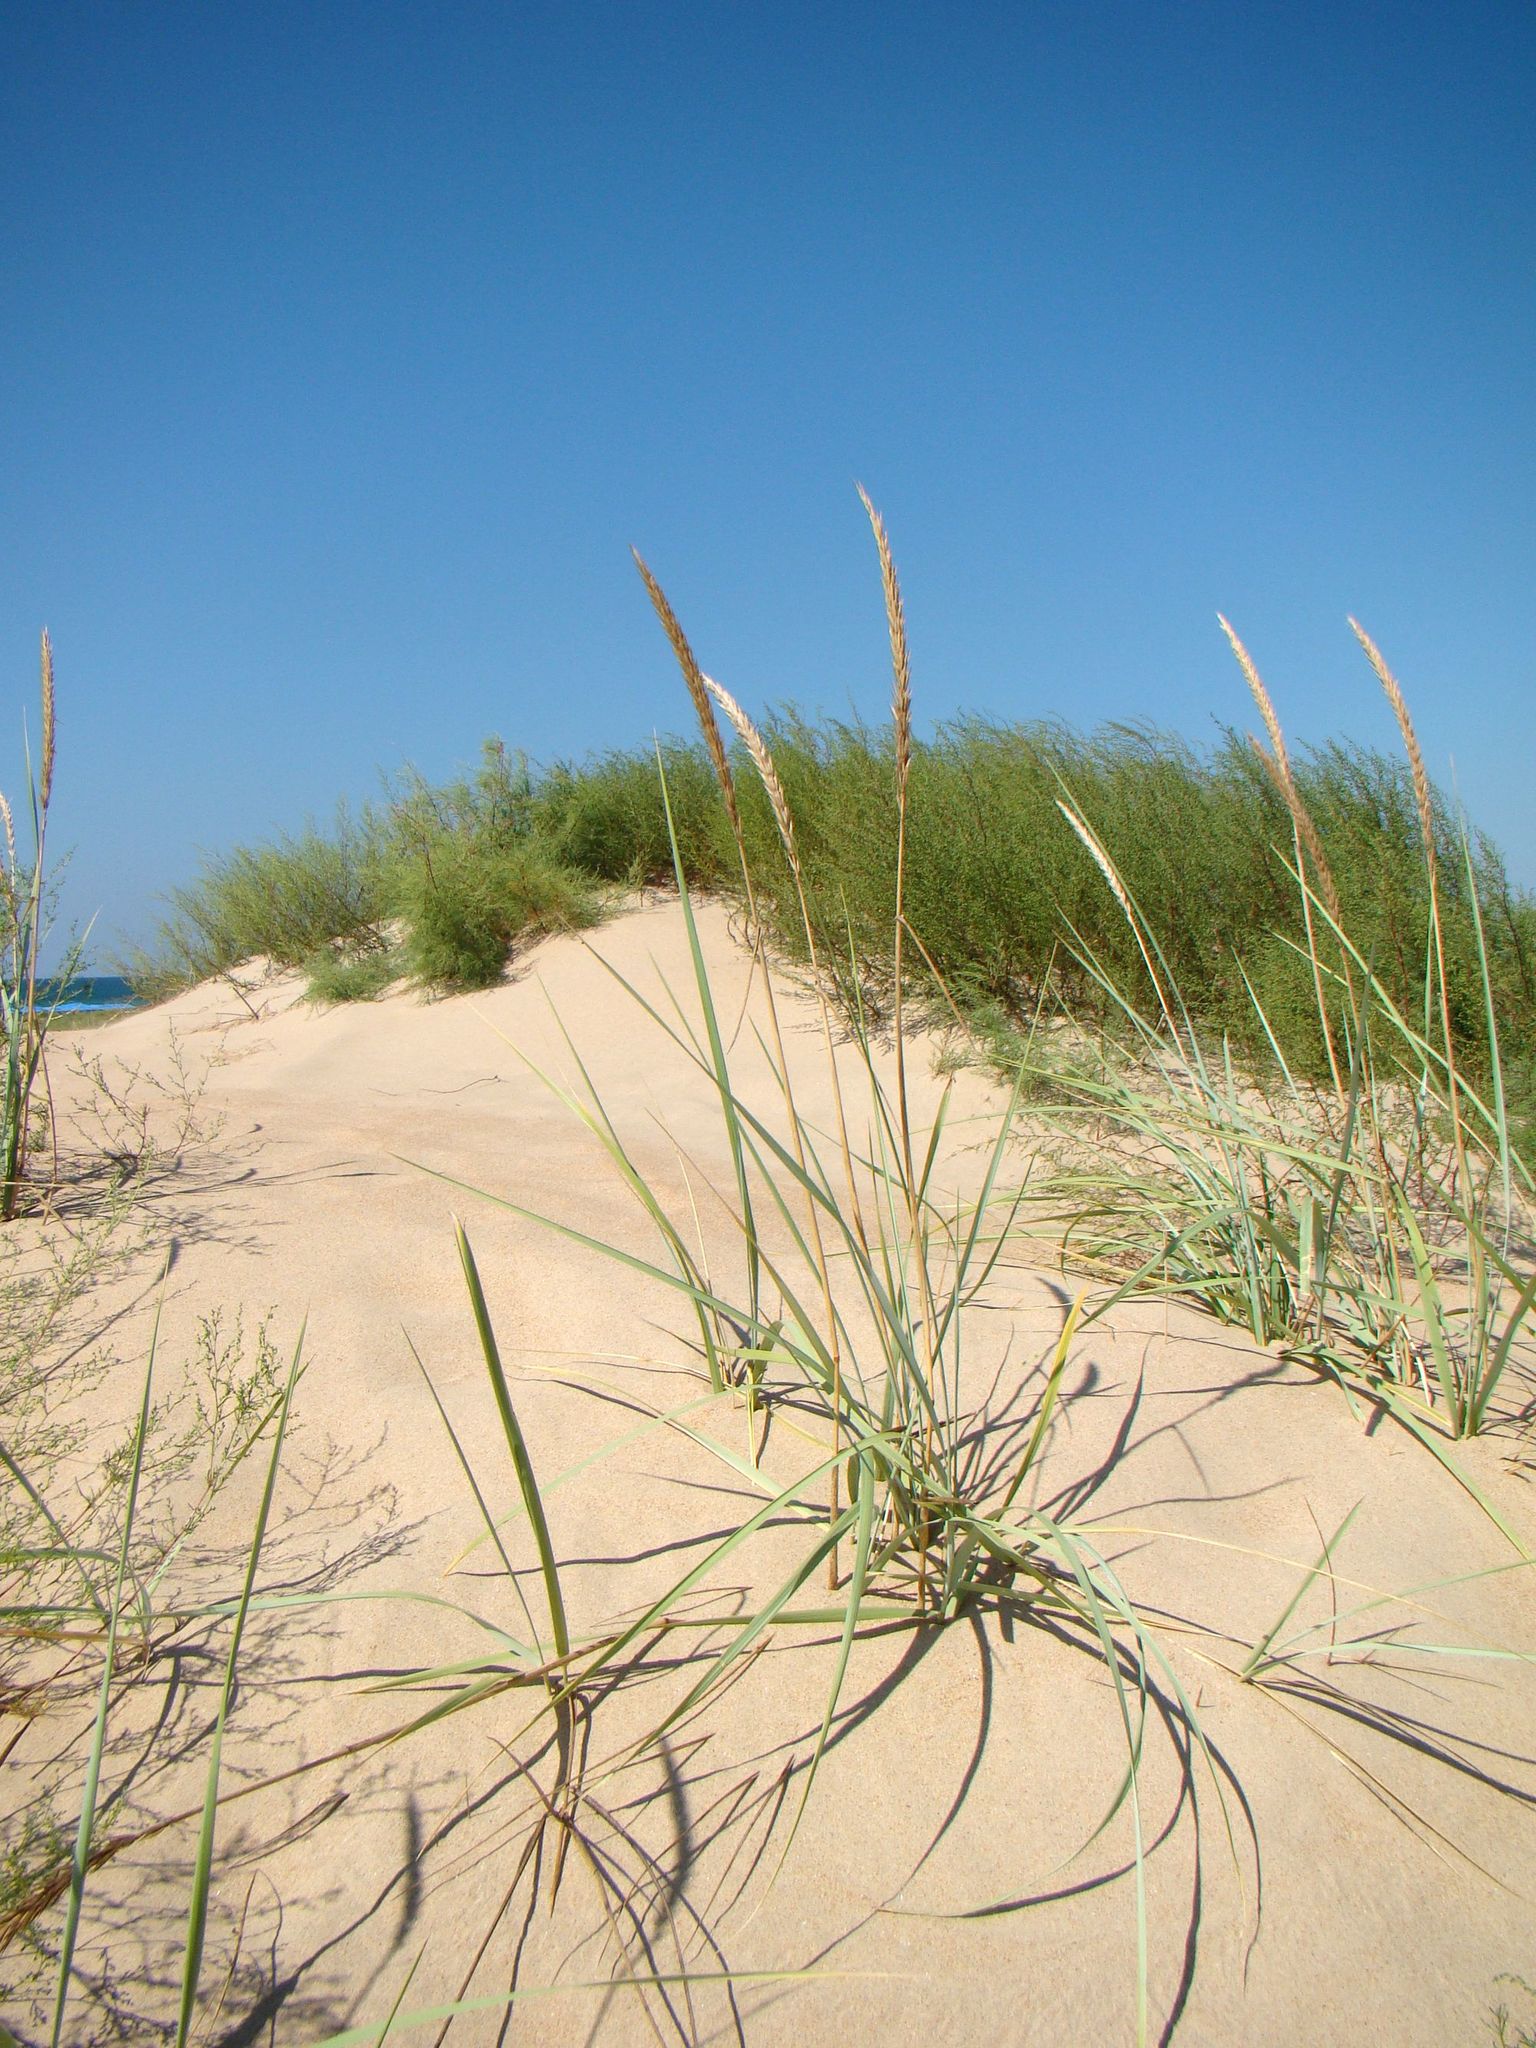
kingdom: Plantae
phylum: Tracheophyta
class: Liliopsida
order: Poales
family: Poaceae
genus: Leymus
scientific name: Leymus racemosus
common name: Mammoth wildrye
